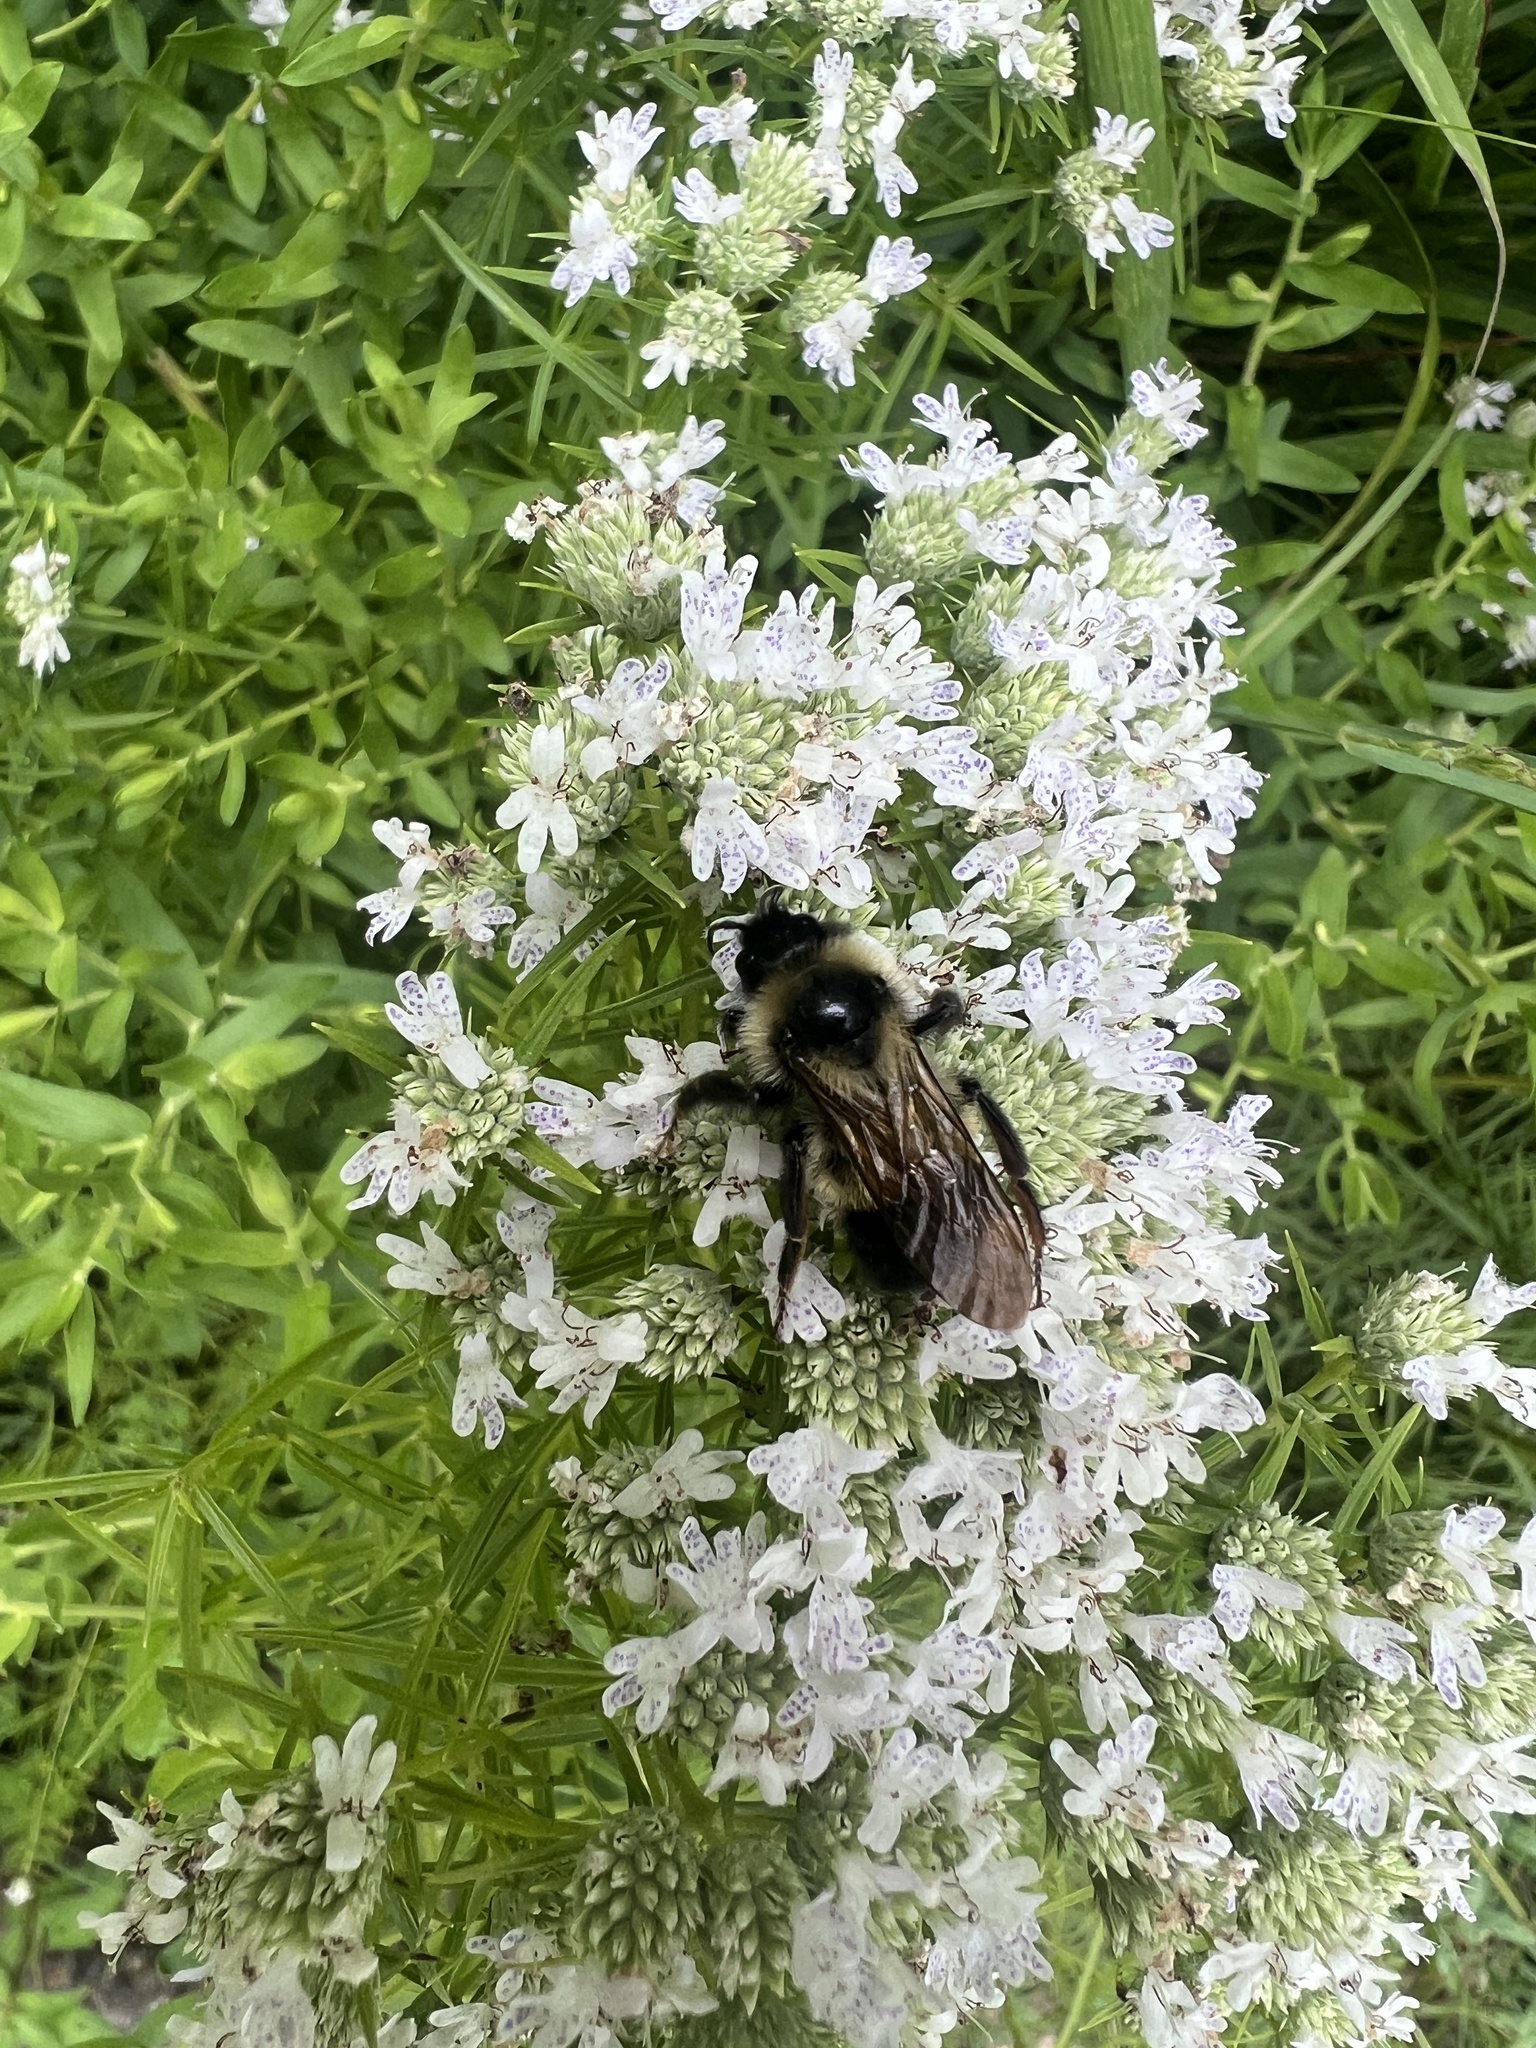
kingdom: Animalia
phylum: Arthropoda
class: Insecta
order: Hymenoptera
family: Apidae
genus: Bombus
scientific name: Bombus citrinus
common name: Lemon cuckoo bumble bee
